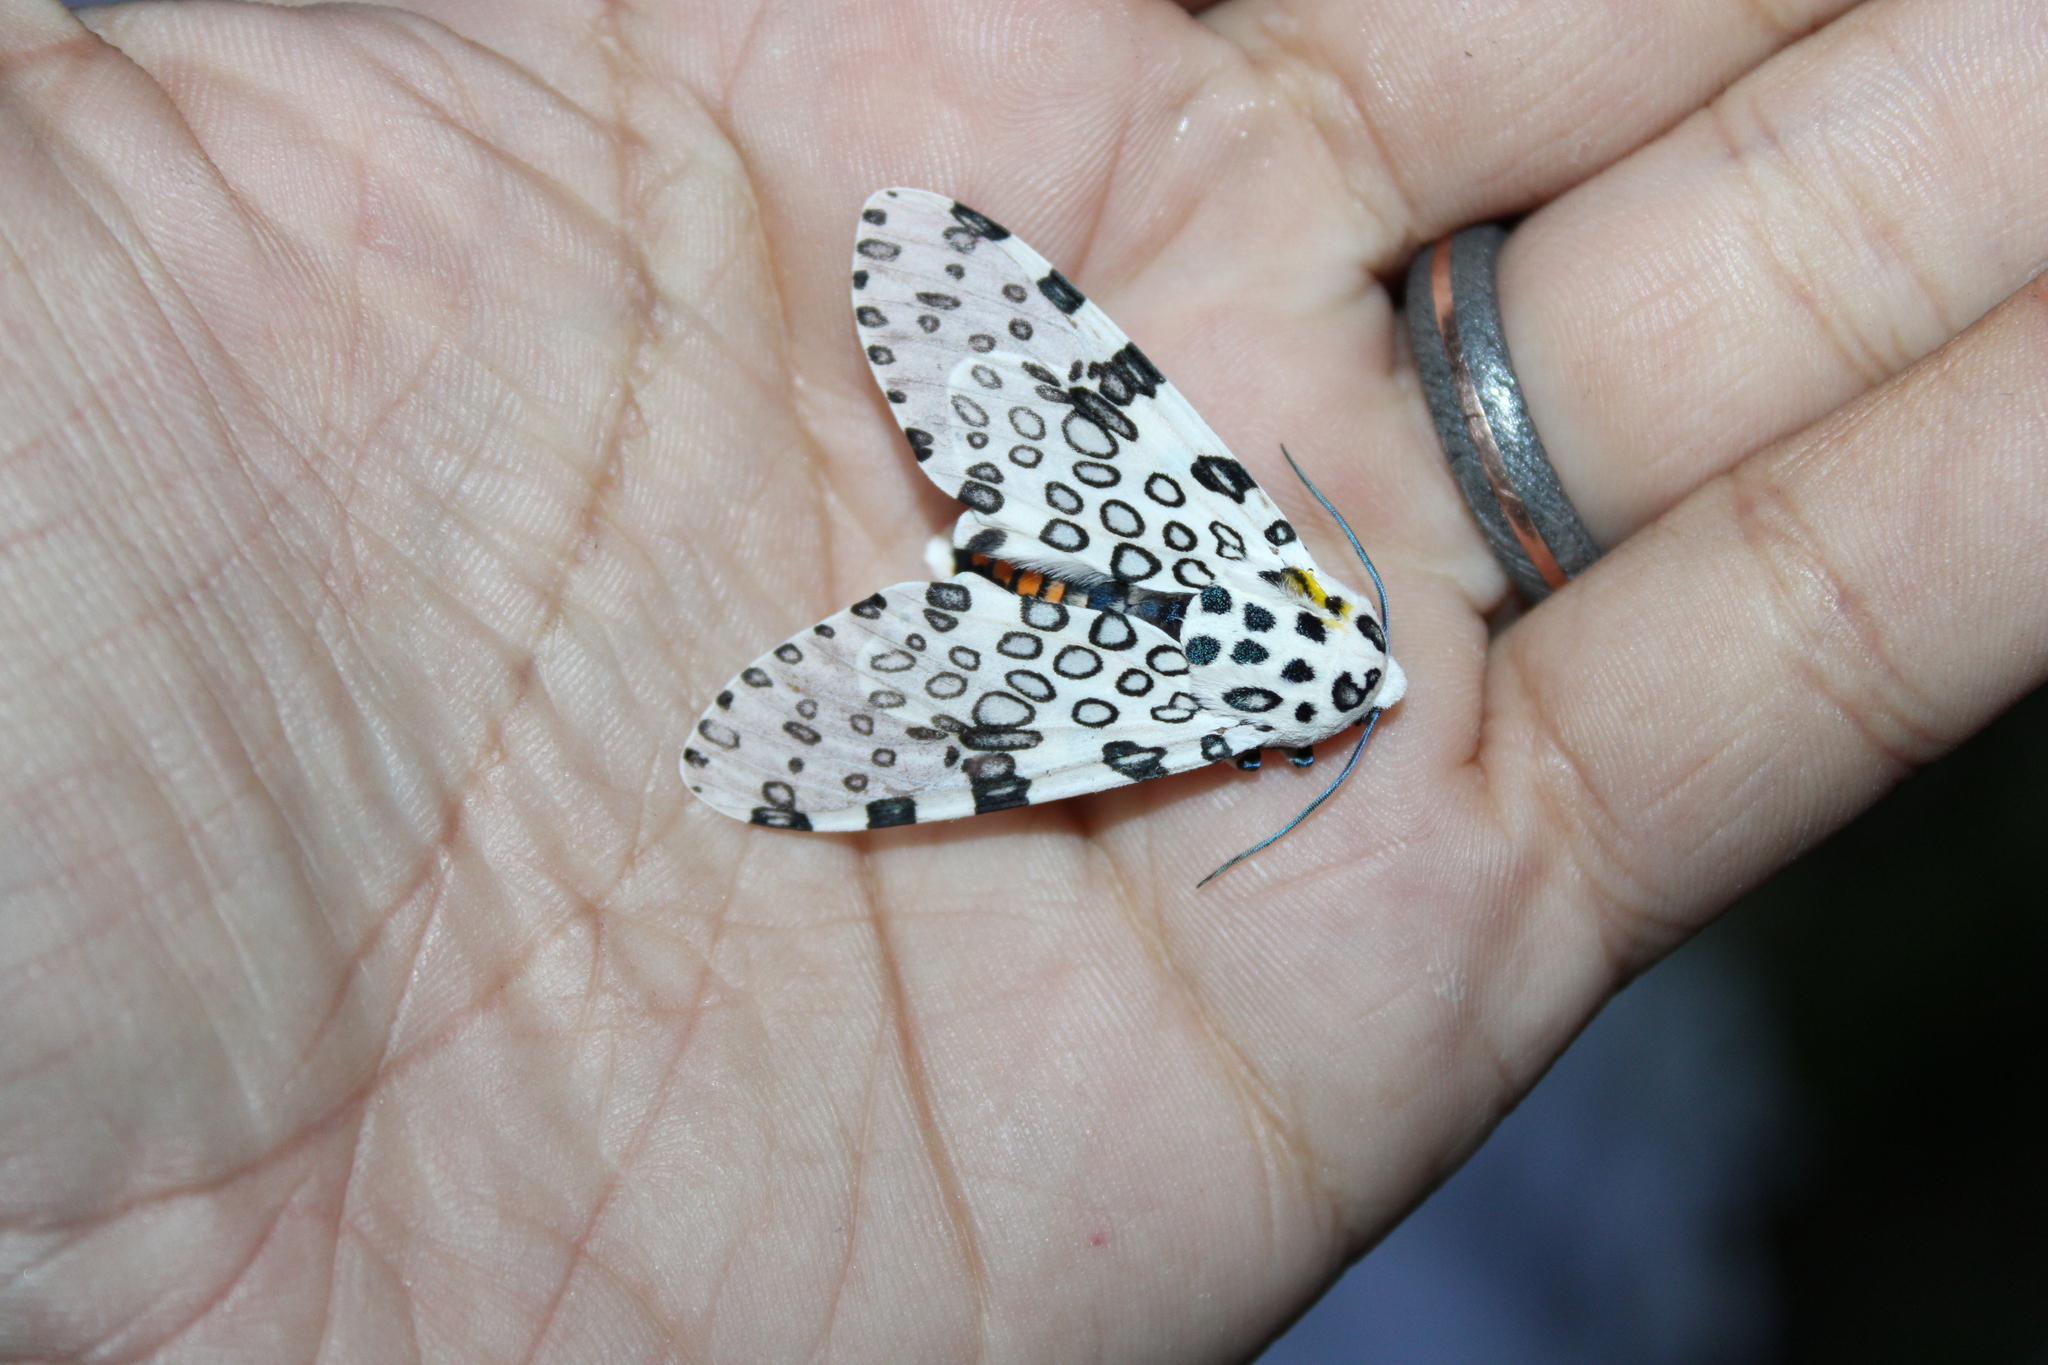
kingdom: Animalia
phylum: Arthropoda
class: Insecta
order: Lepidoptera
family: Erebidae
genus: Hypercompe
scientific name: Hypercompe scribonia
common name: Giant leopard moth
